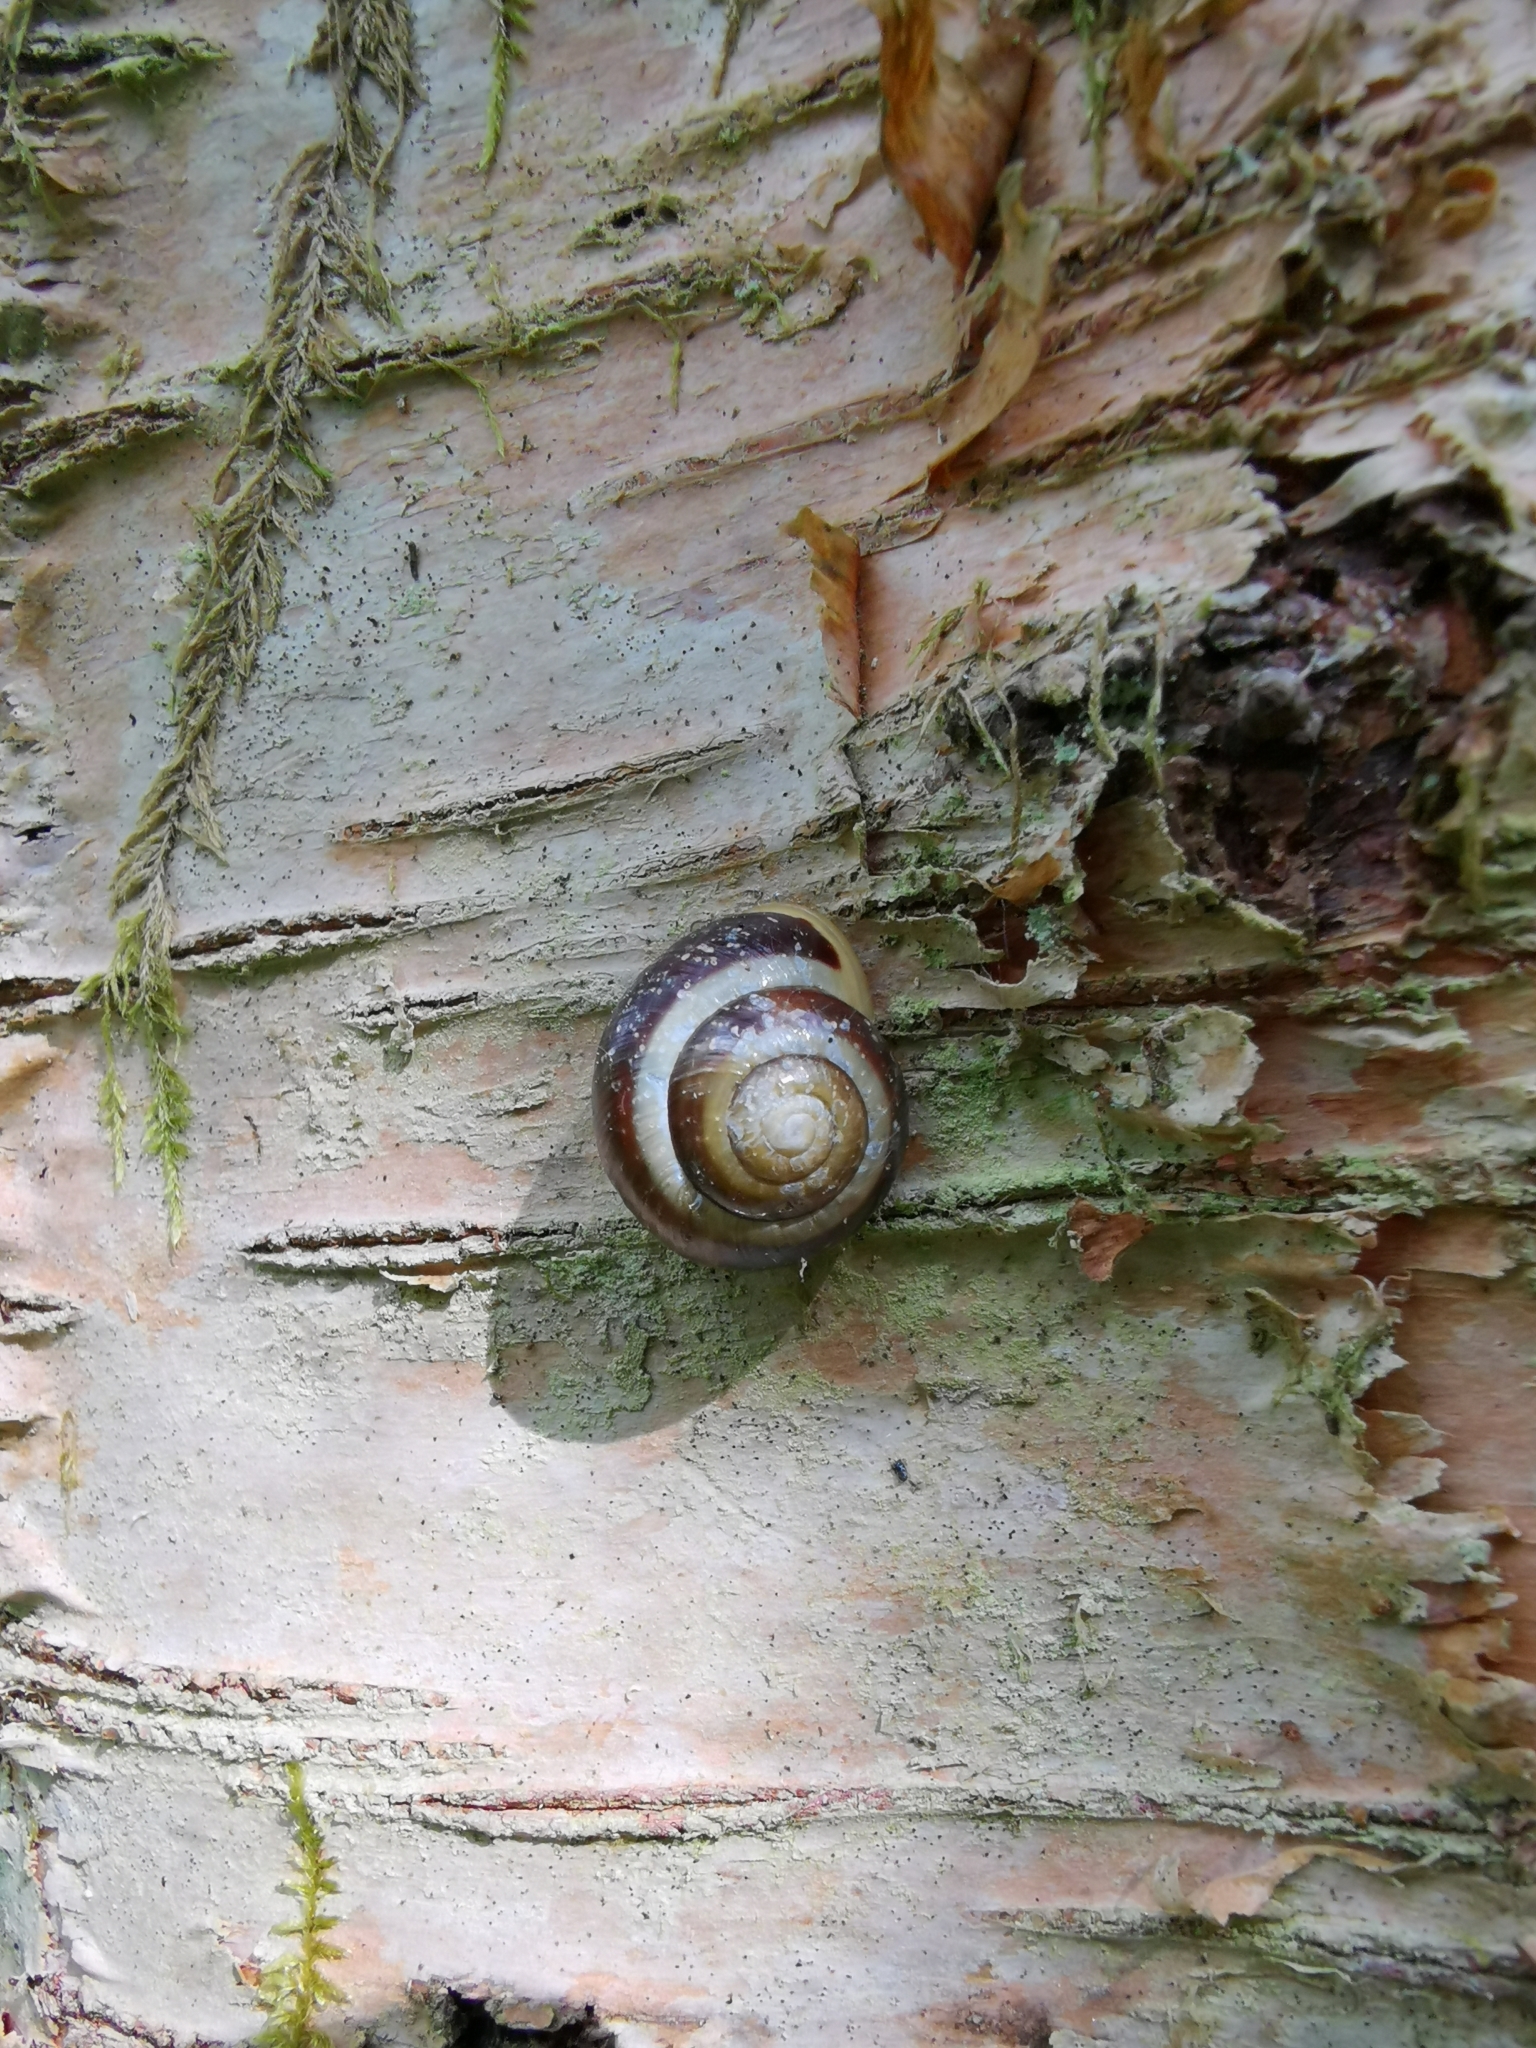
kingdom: Animalia
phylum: Mollusca
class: Gastropoda
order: Stylommatophora
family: Helicidae
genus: Cepaea
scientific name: Cepaea hortensis
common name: White-lip gardensnail
